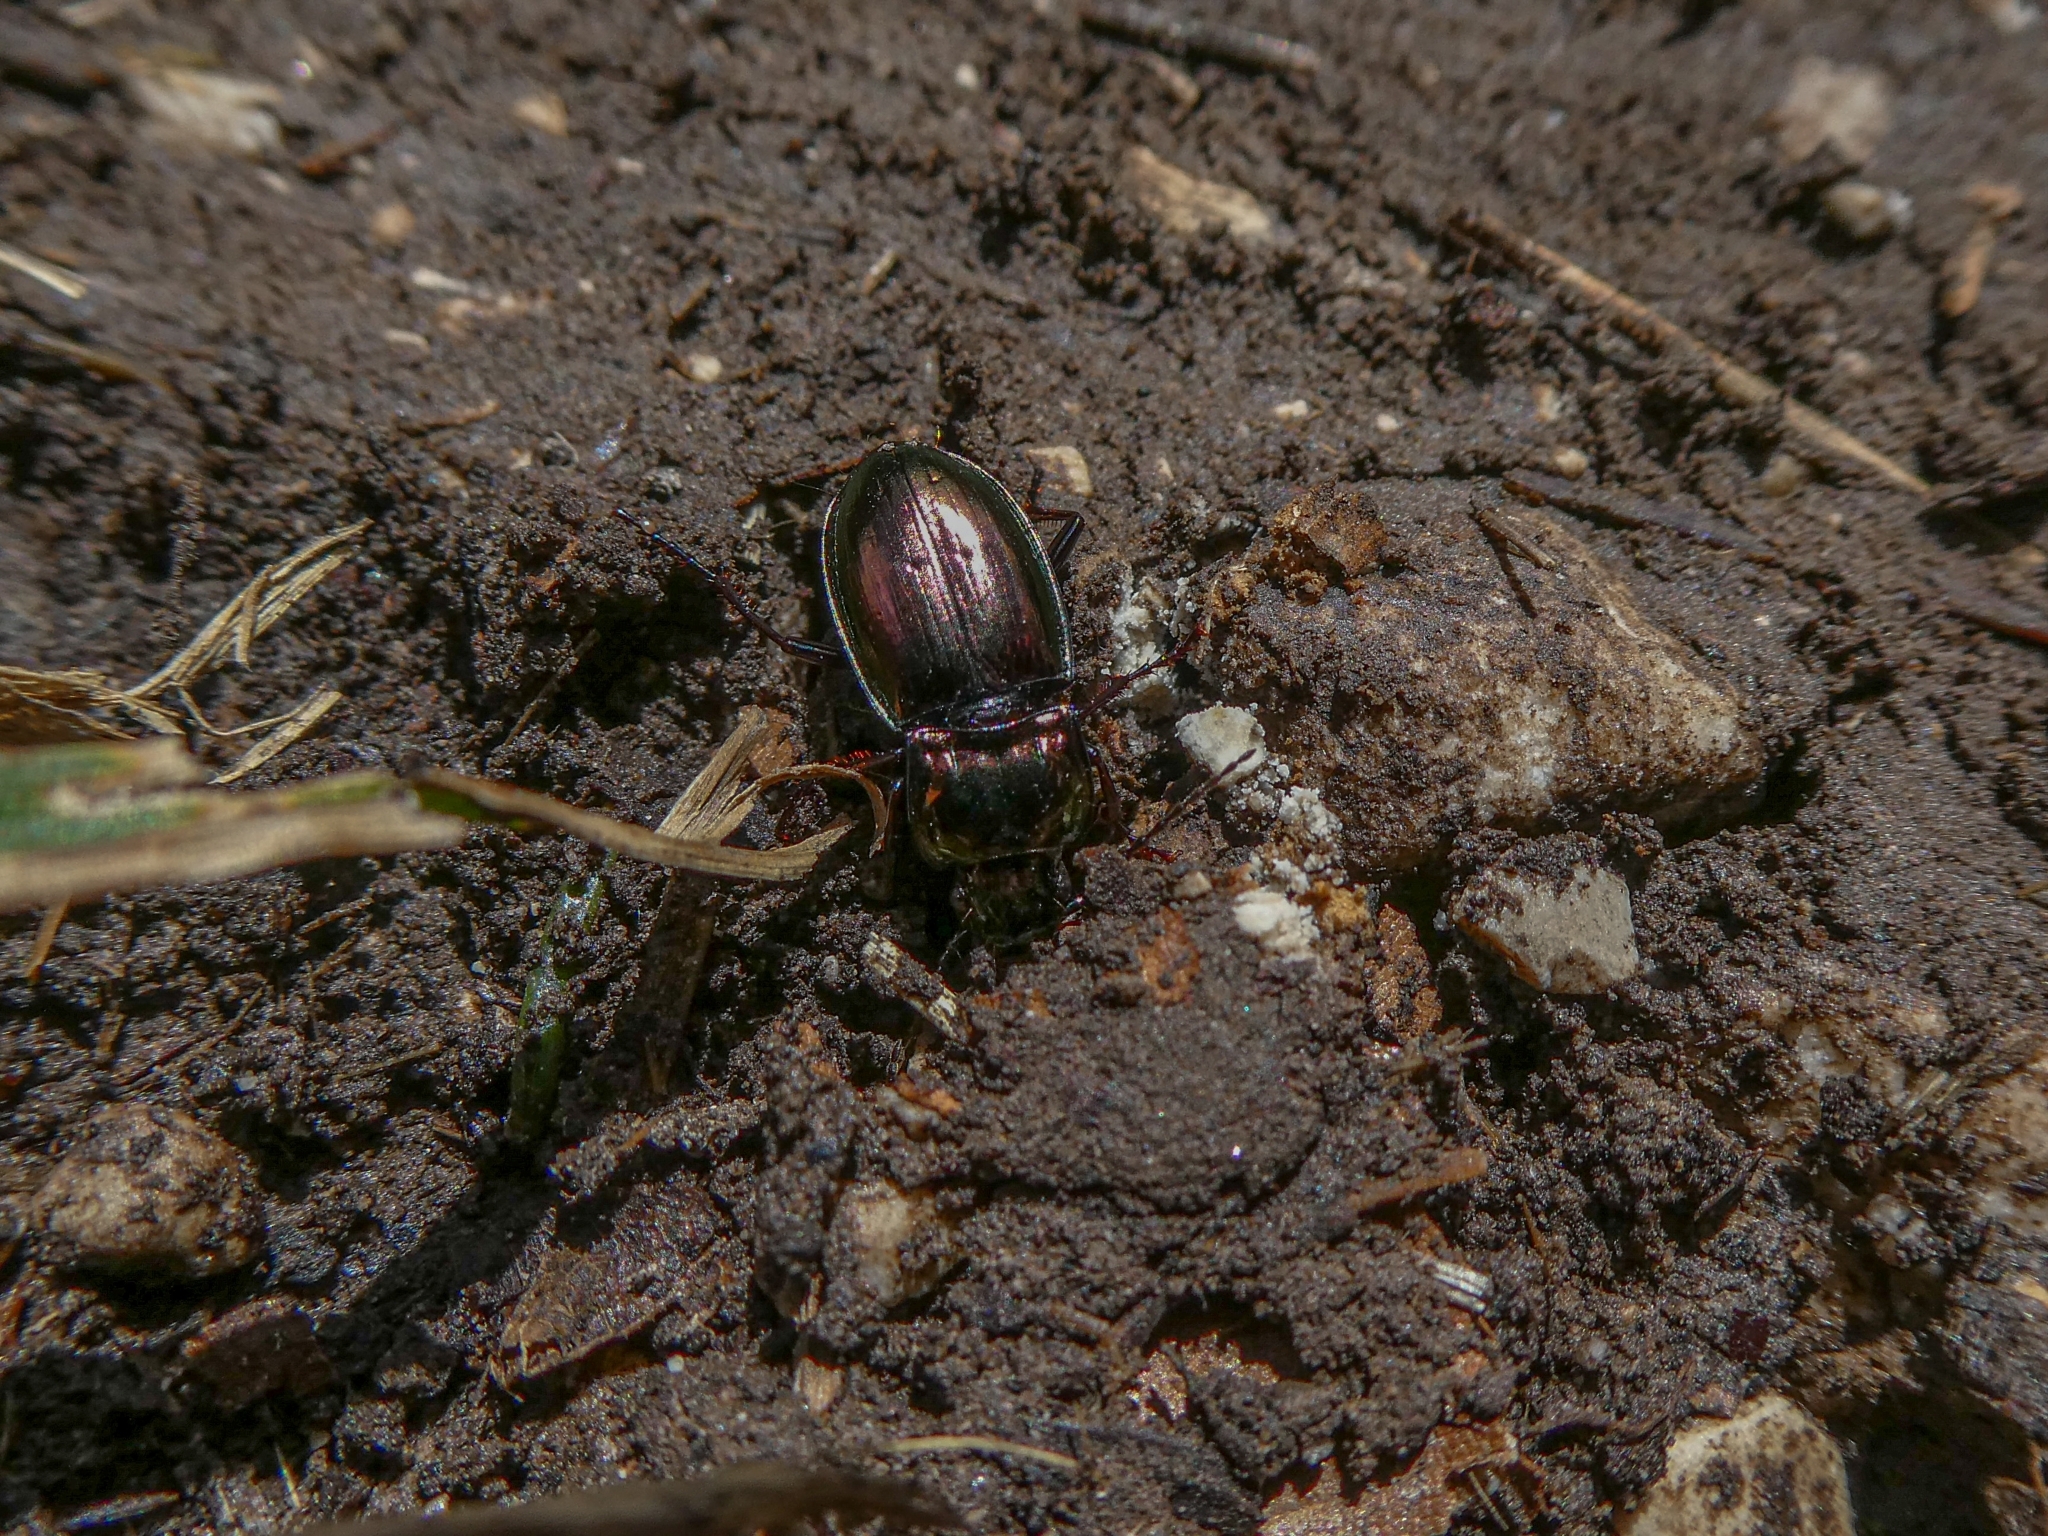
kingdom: Animalia
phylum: Arthropoda
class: Insecta
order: Coleoptera
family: Carabidae
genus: Pterostichus
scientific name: Pterostichus burmeisteri
